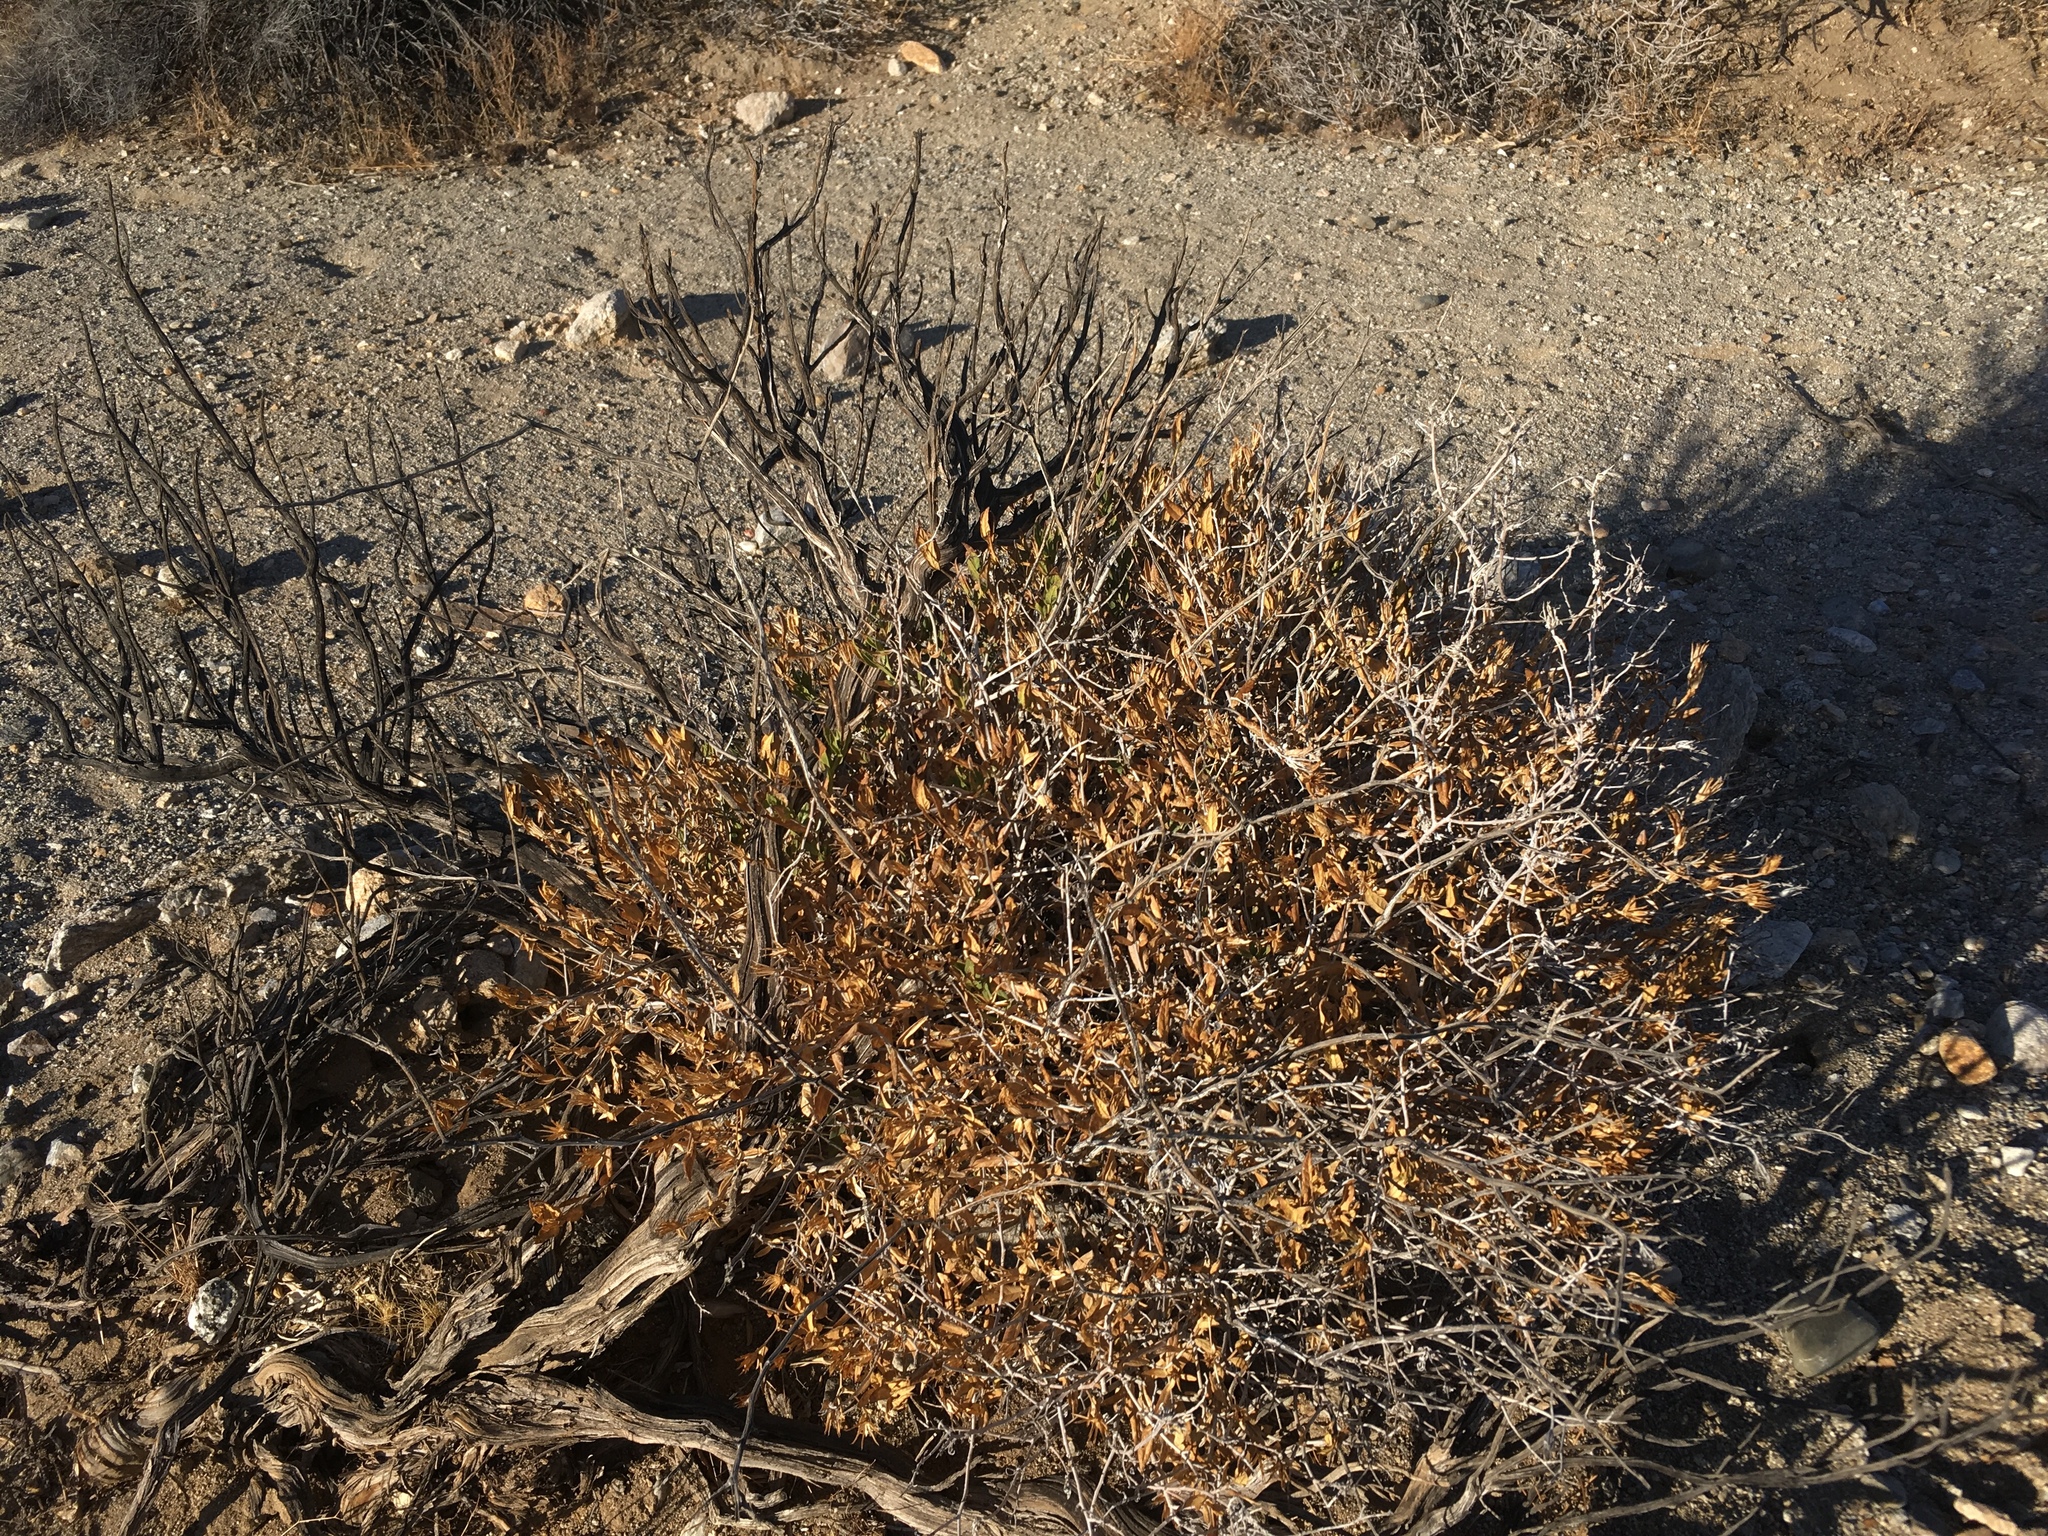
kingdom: Plantae
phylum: Tracheophyta
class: Magnoliopsida
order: Asterales
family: Asteraceae
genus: Trixis
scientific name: Trixis californica
